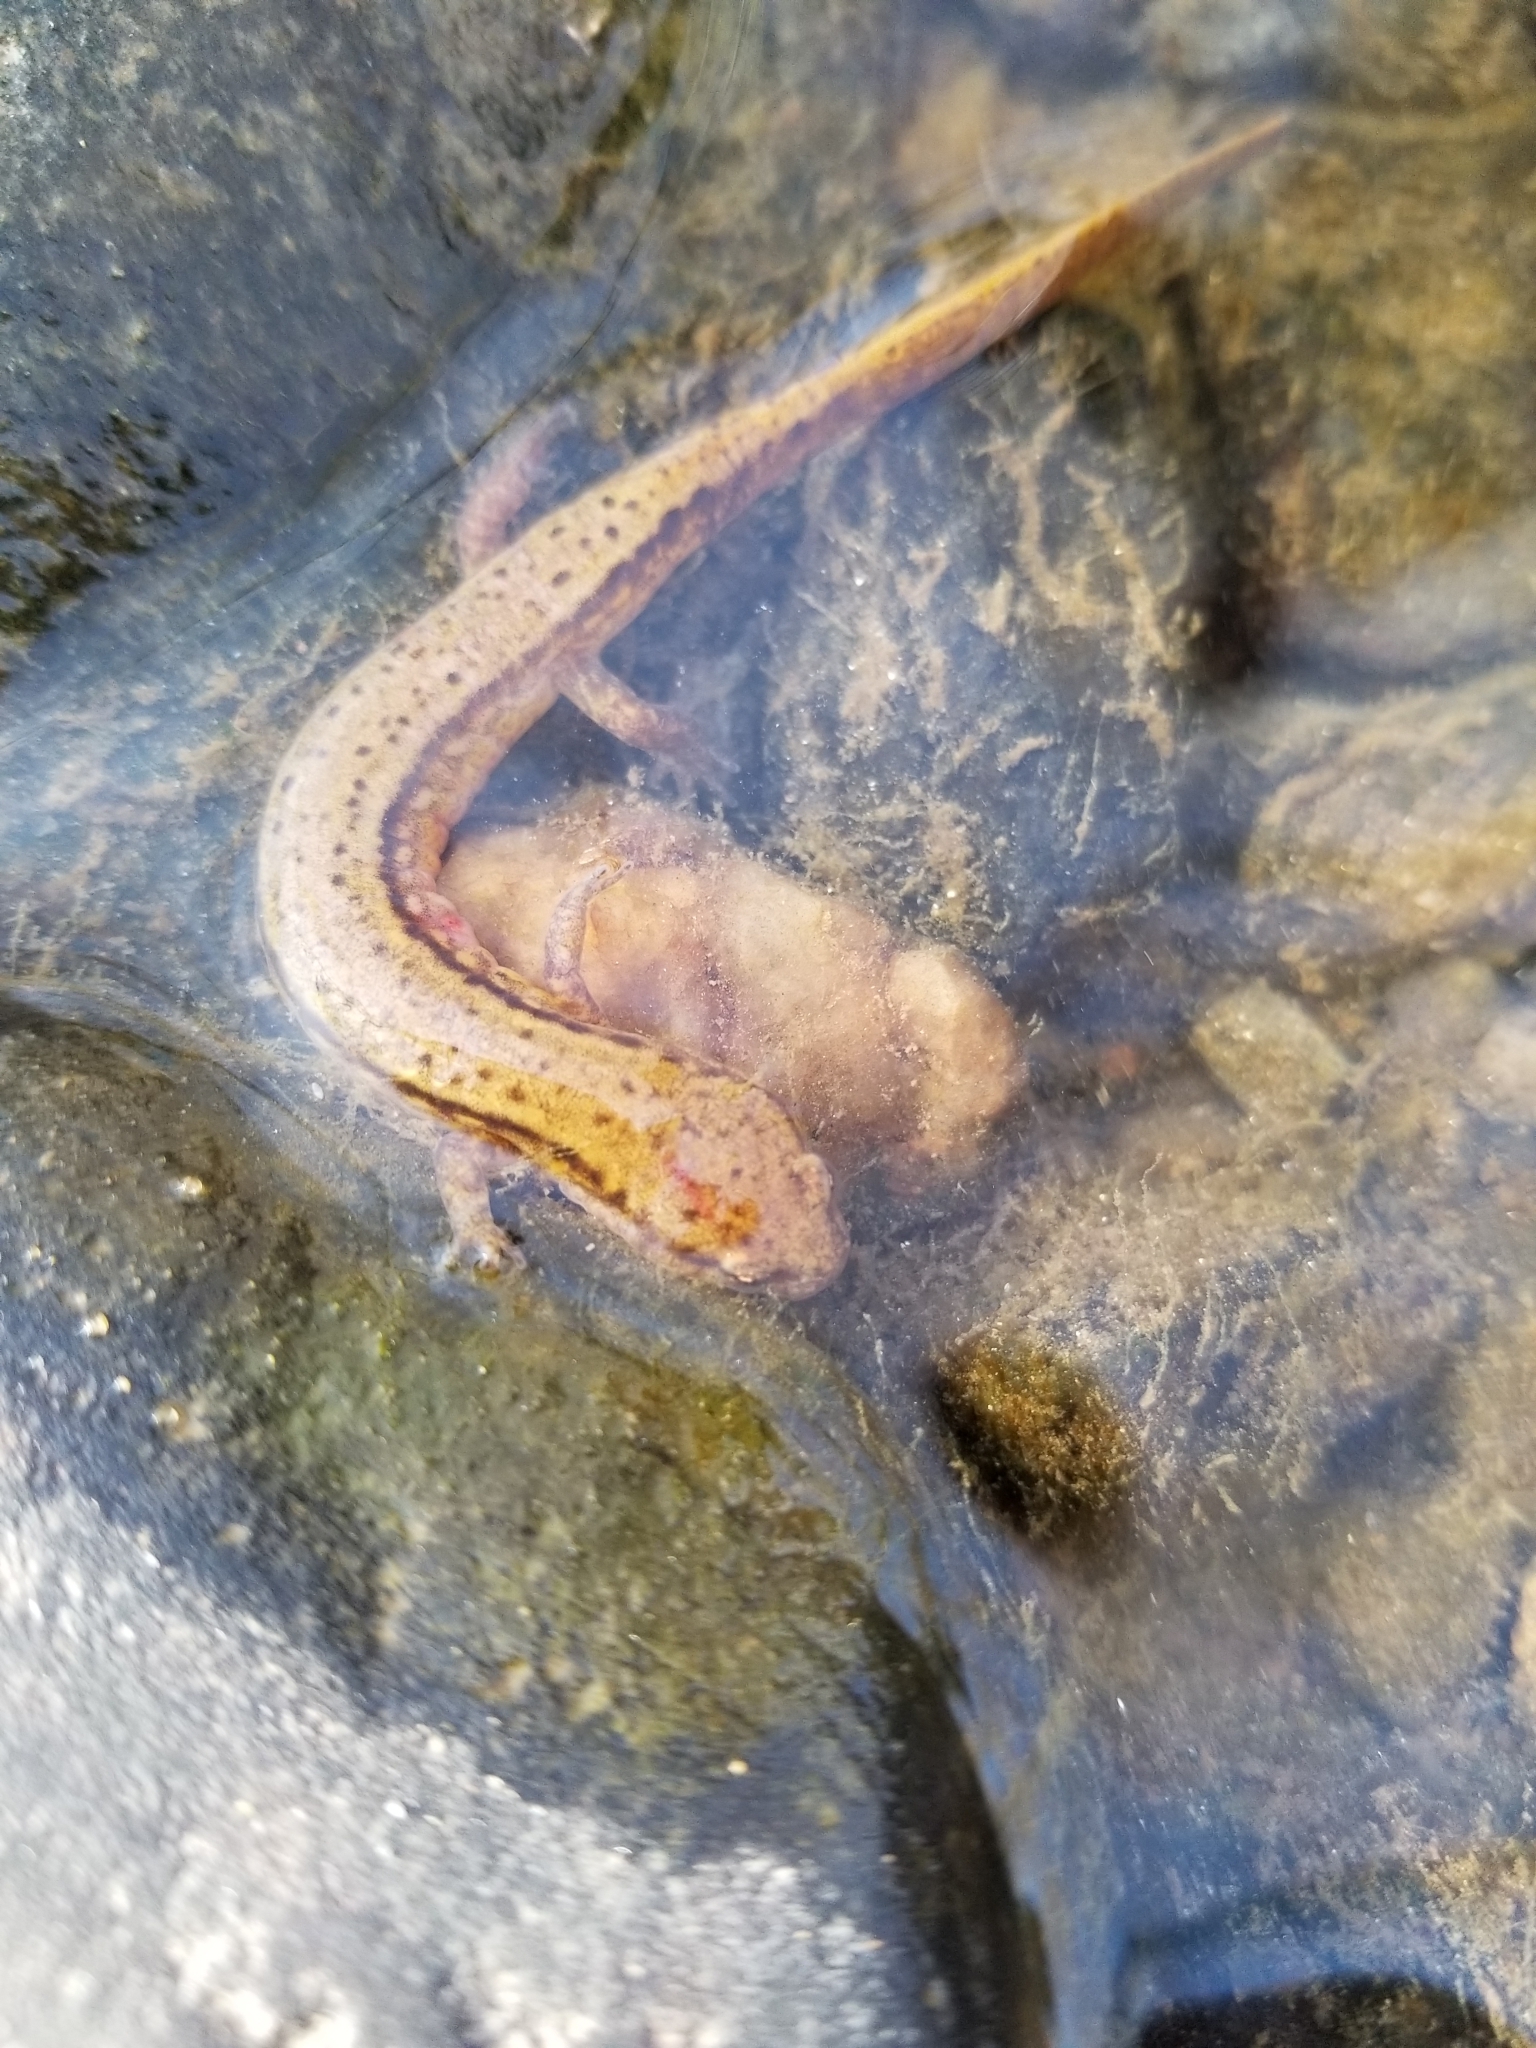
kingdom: Animalia
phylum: Chordata
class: Amphibia
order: Caudata
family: Plethodontidae
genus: Eurycea
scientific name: Eurycea cirrigera
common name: Southern two-lined salamander
